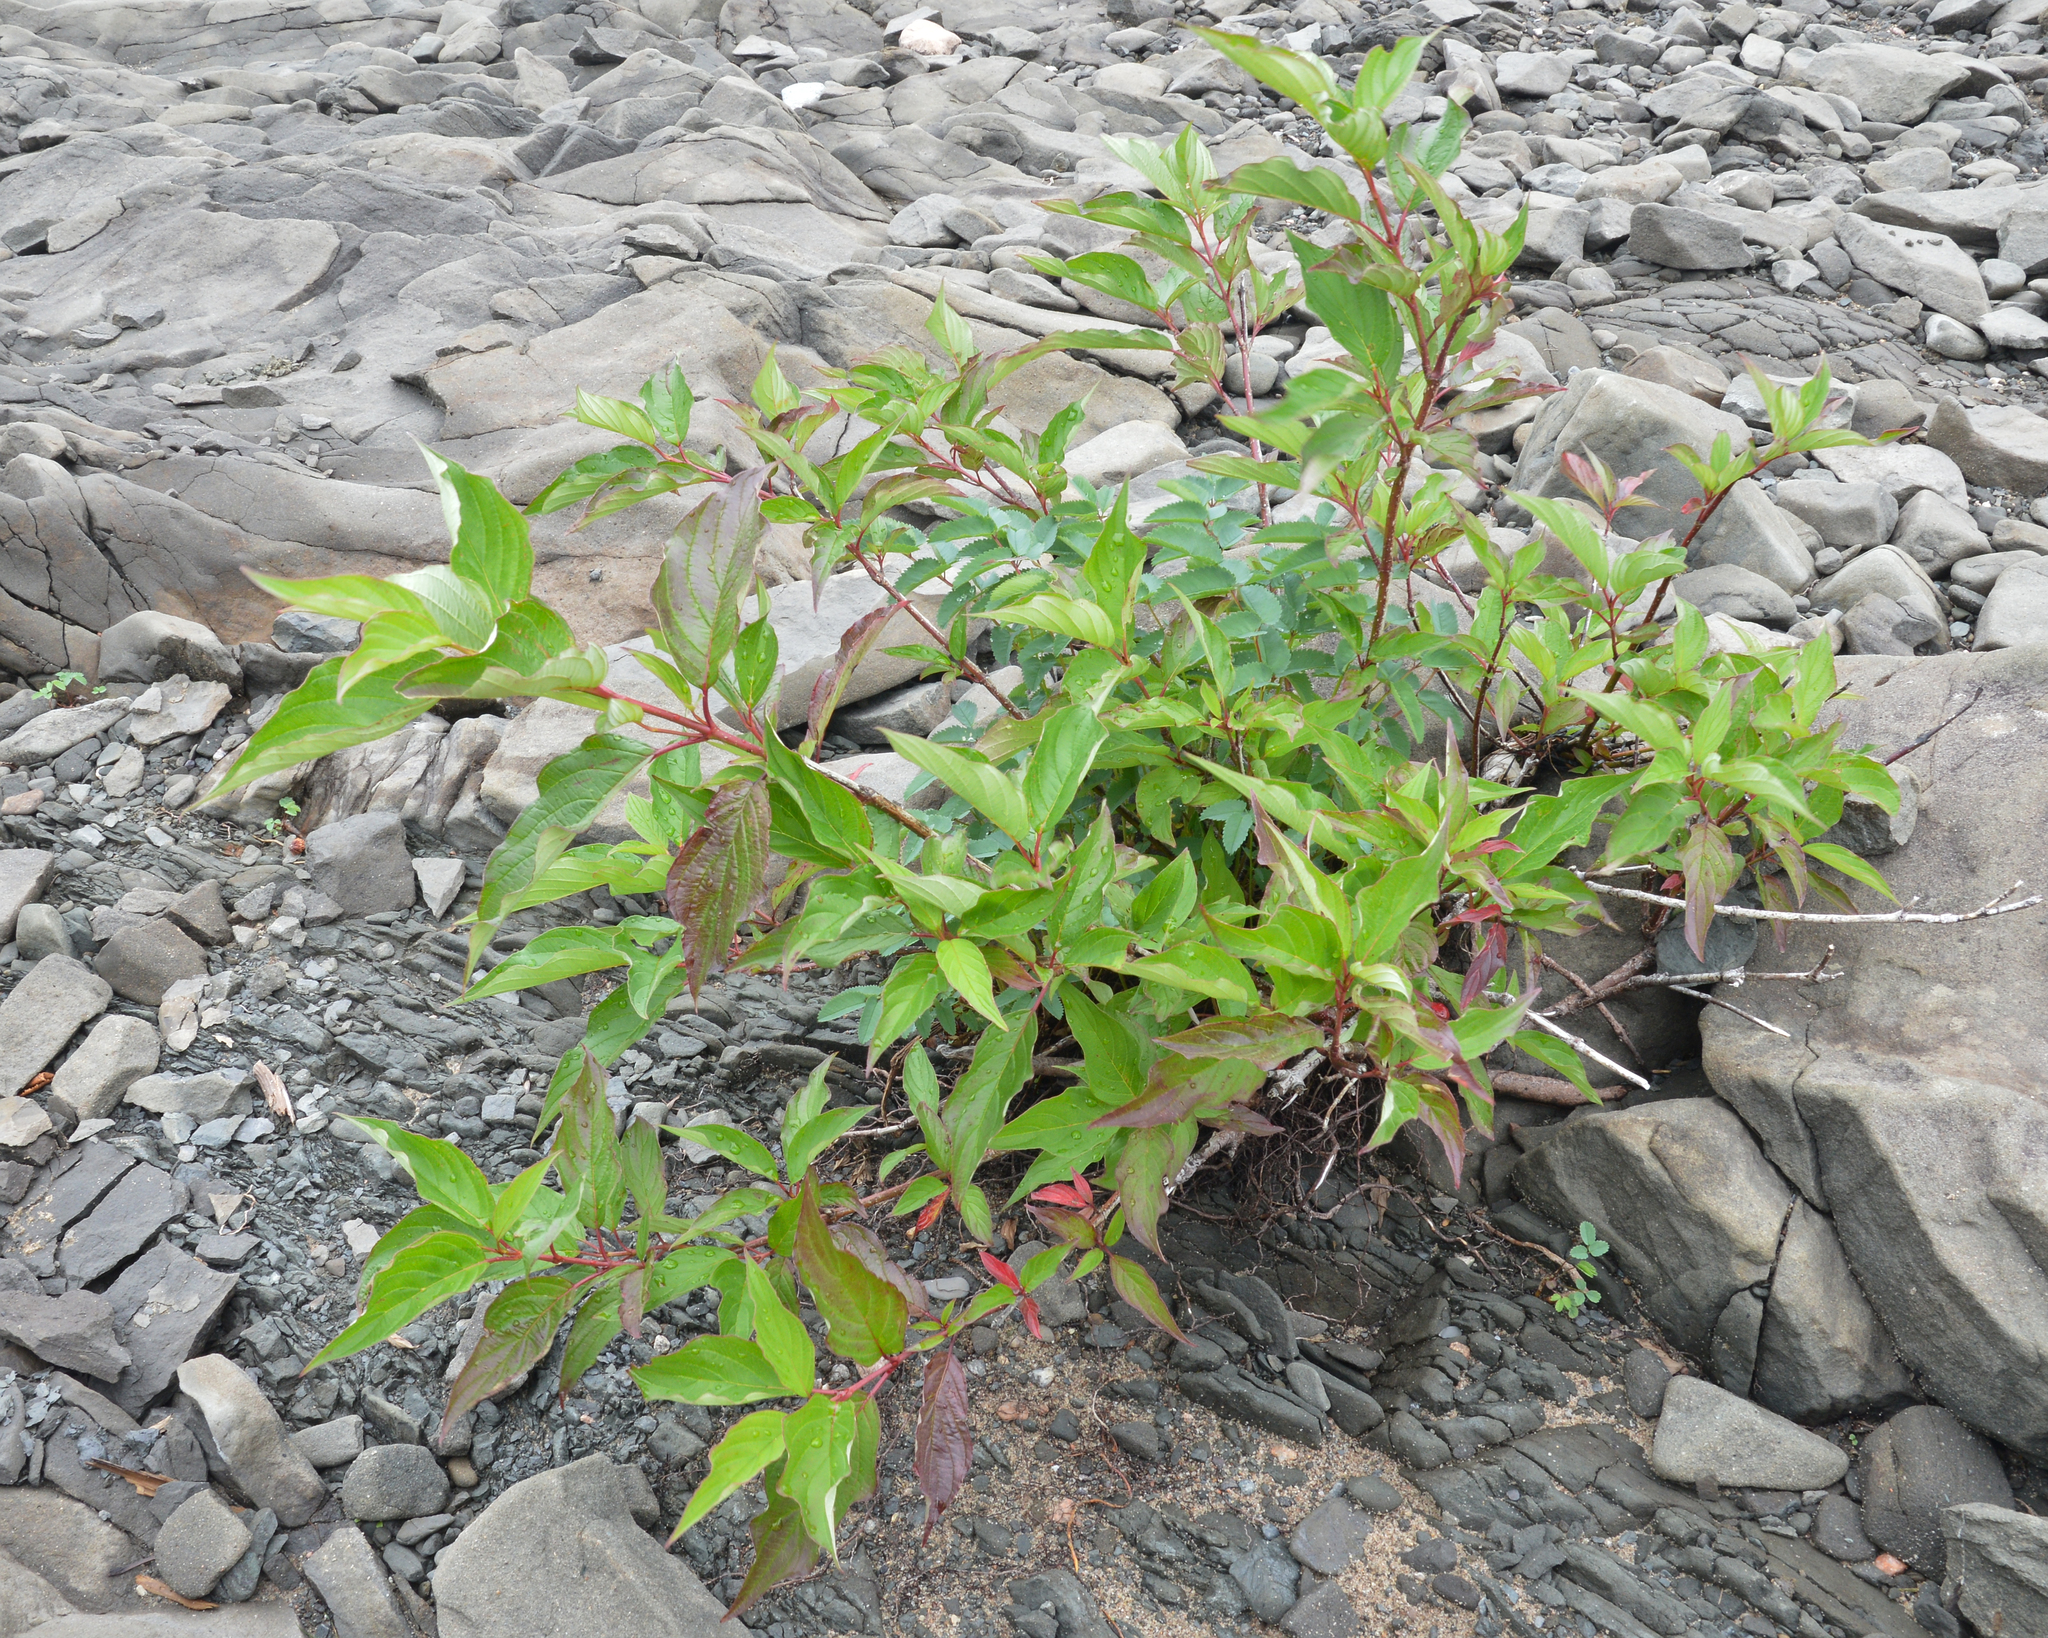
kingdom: Plantae
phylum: Tracheophyta
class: Magnoliopsida
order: Cornales
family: Cornaceae
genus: Cornus
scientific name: Cornus sericea
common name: Red-osier dogwood
